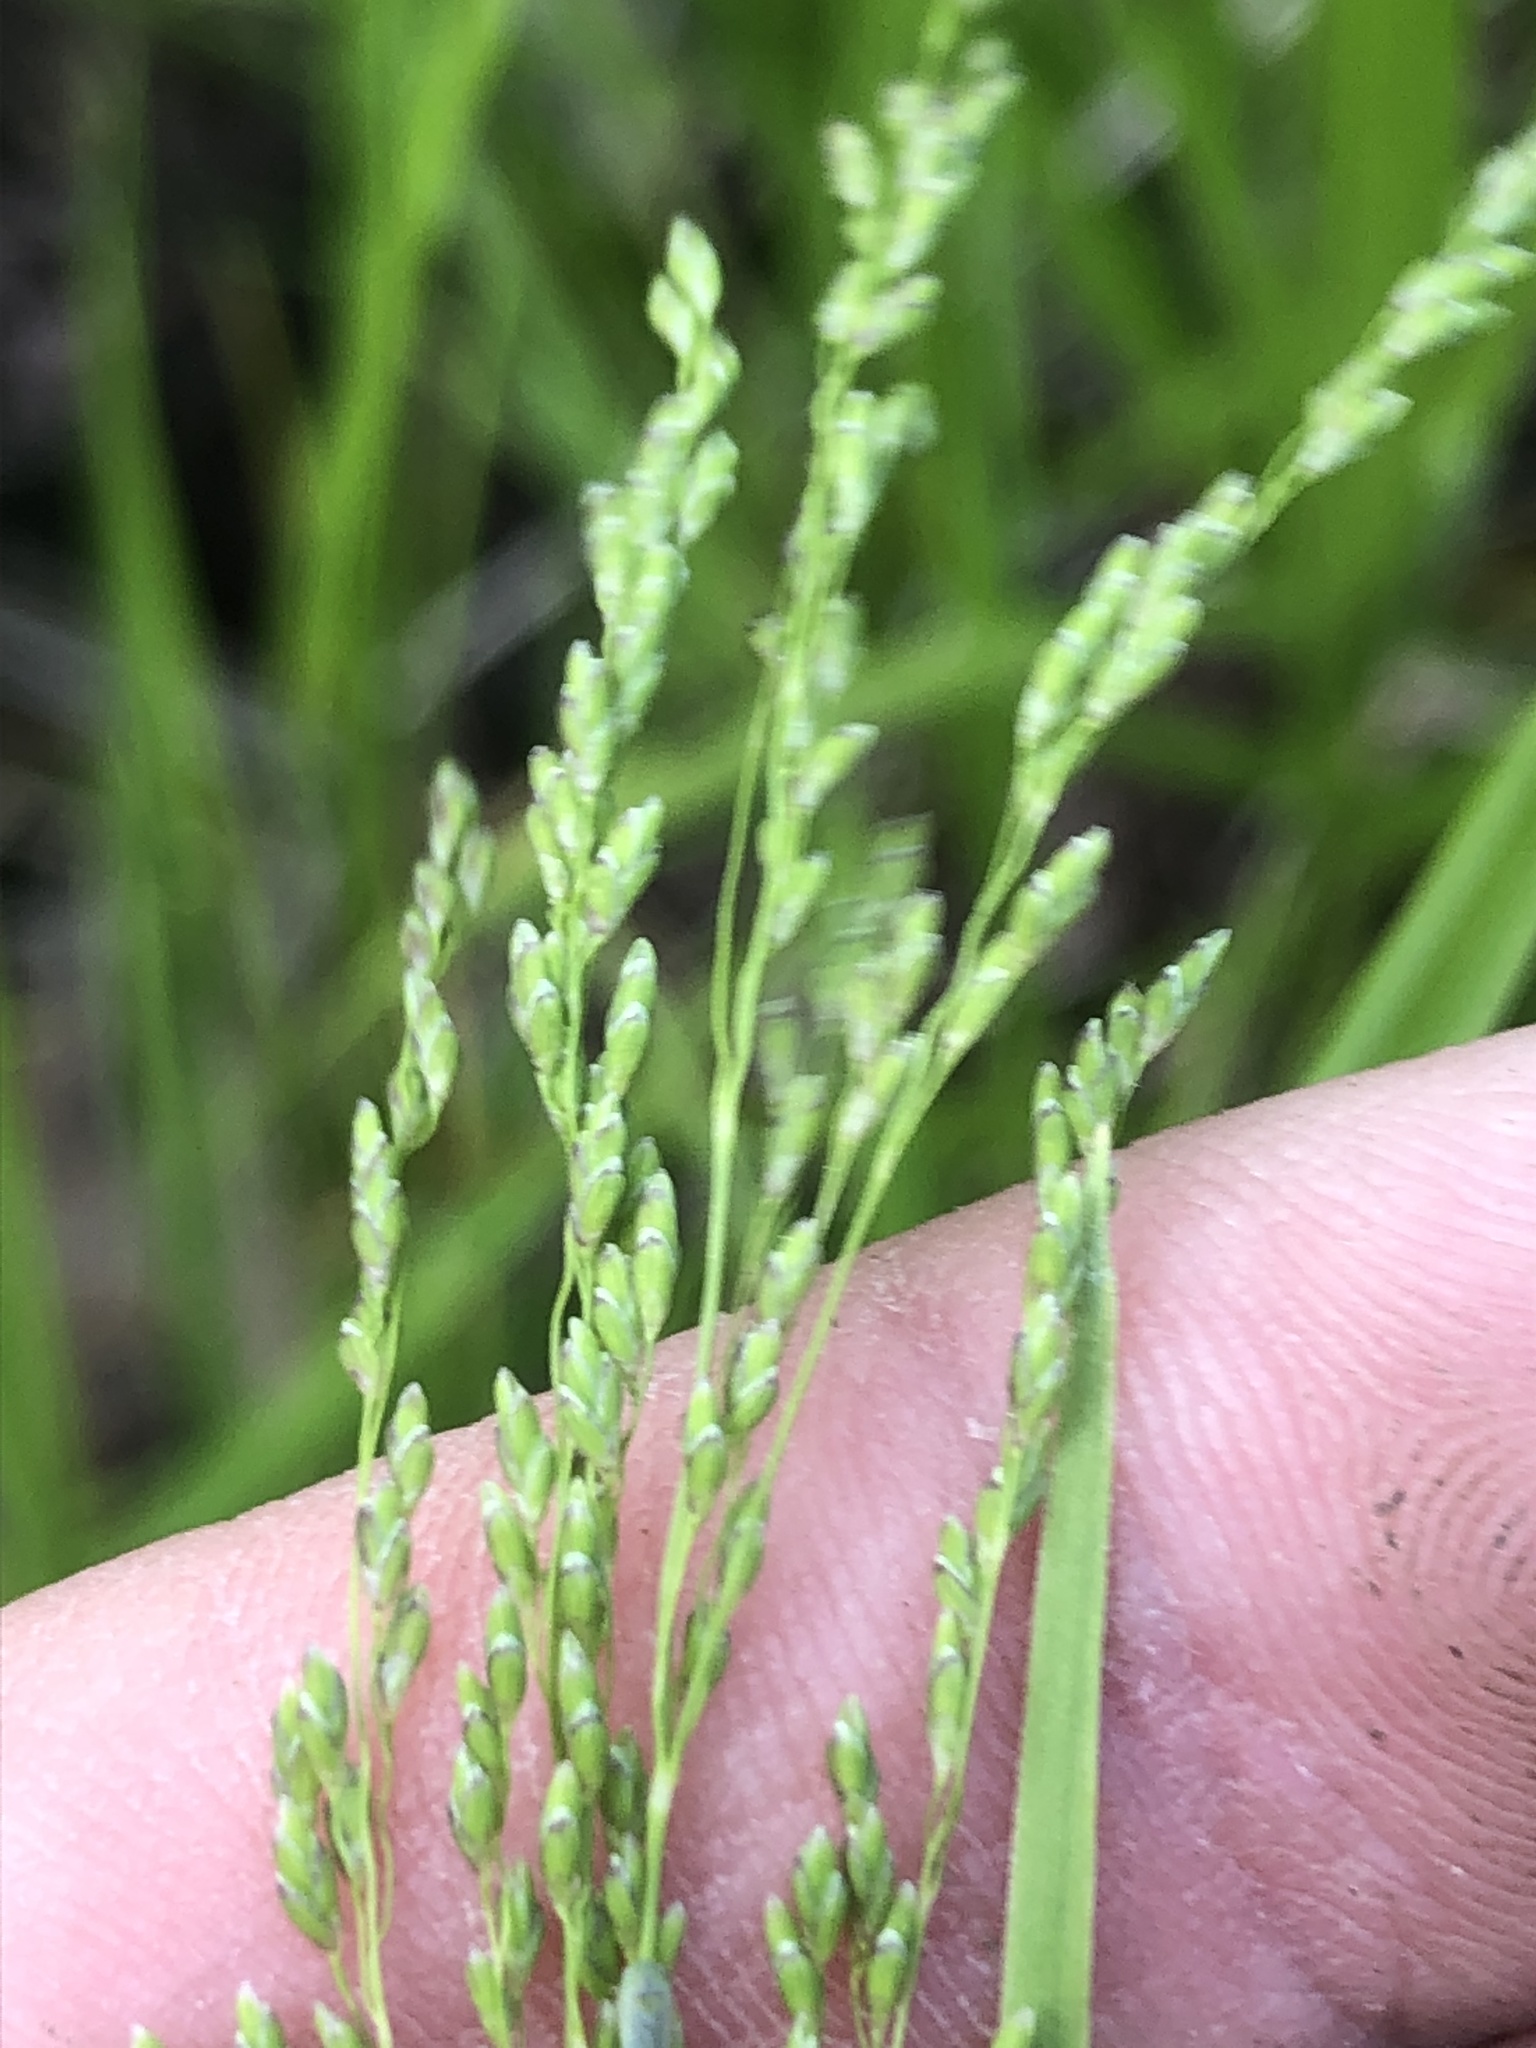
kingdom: Plantae
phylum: Tracheophyta
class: Liliopsida
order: Poales
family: Poaceae
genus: Glyceria
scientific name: Glyceria striata
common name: Fowl manna grass
